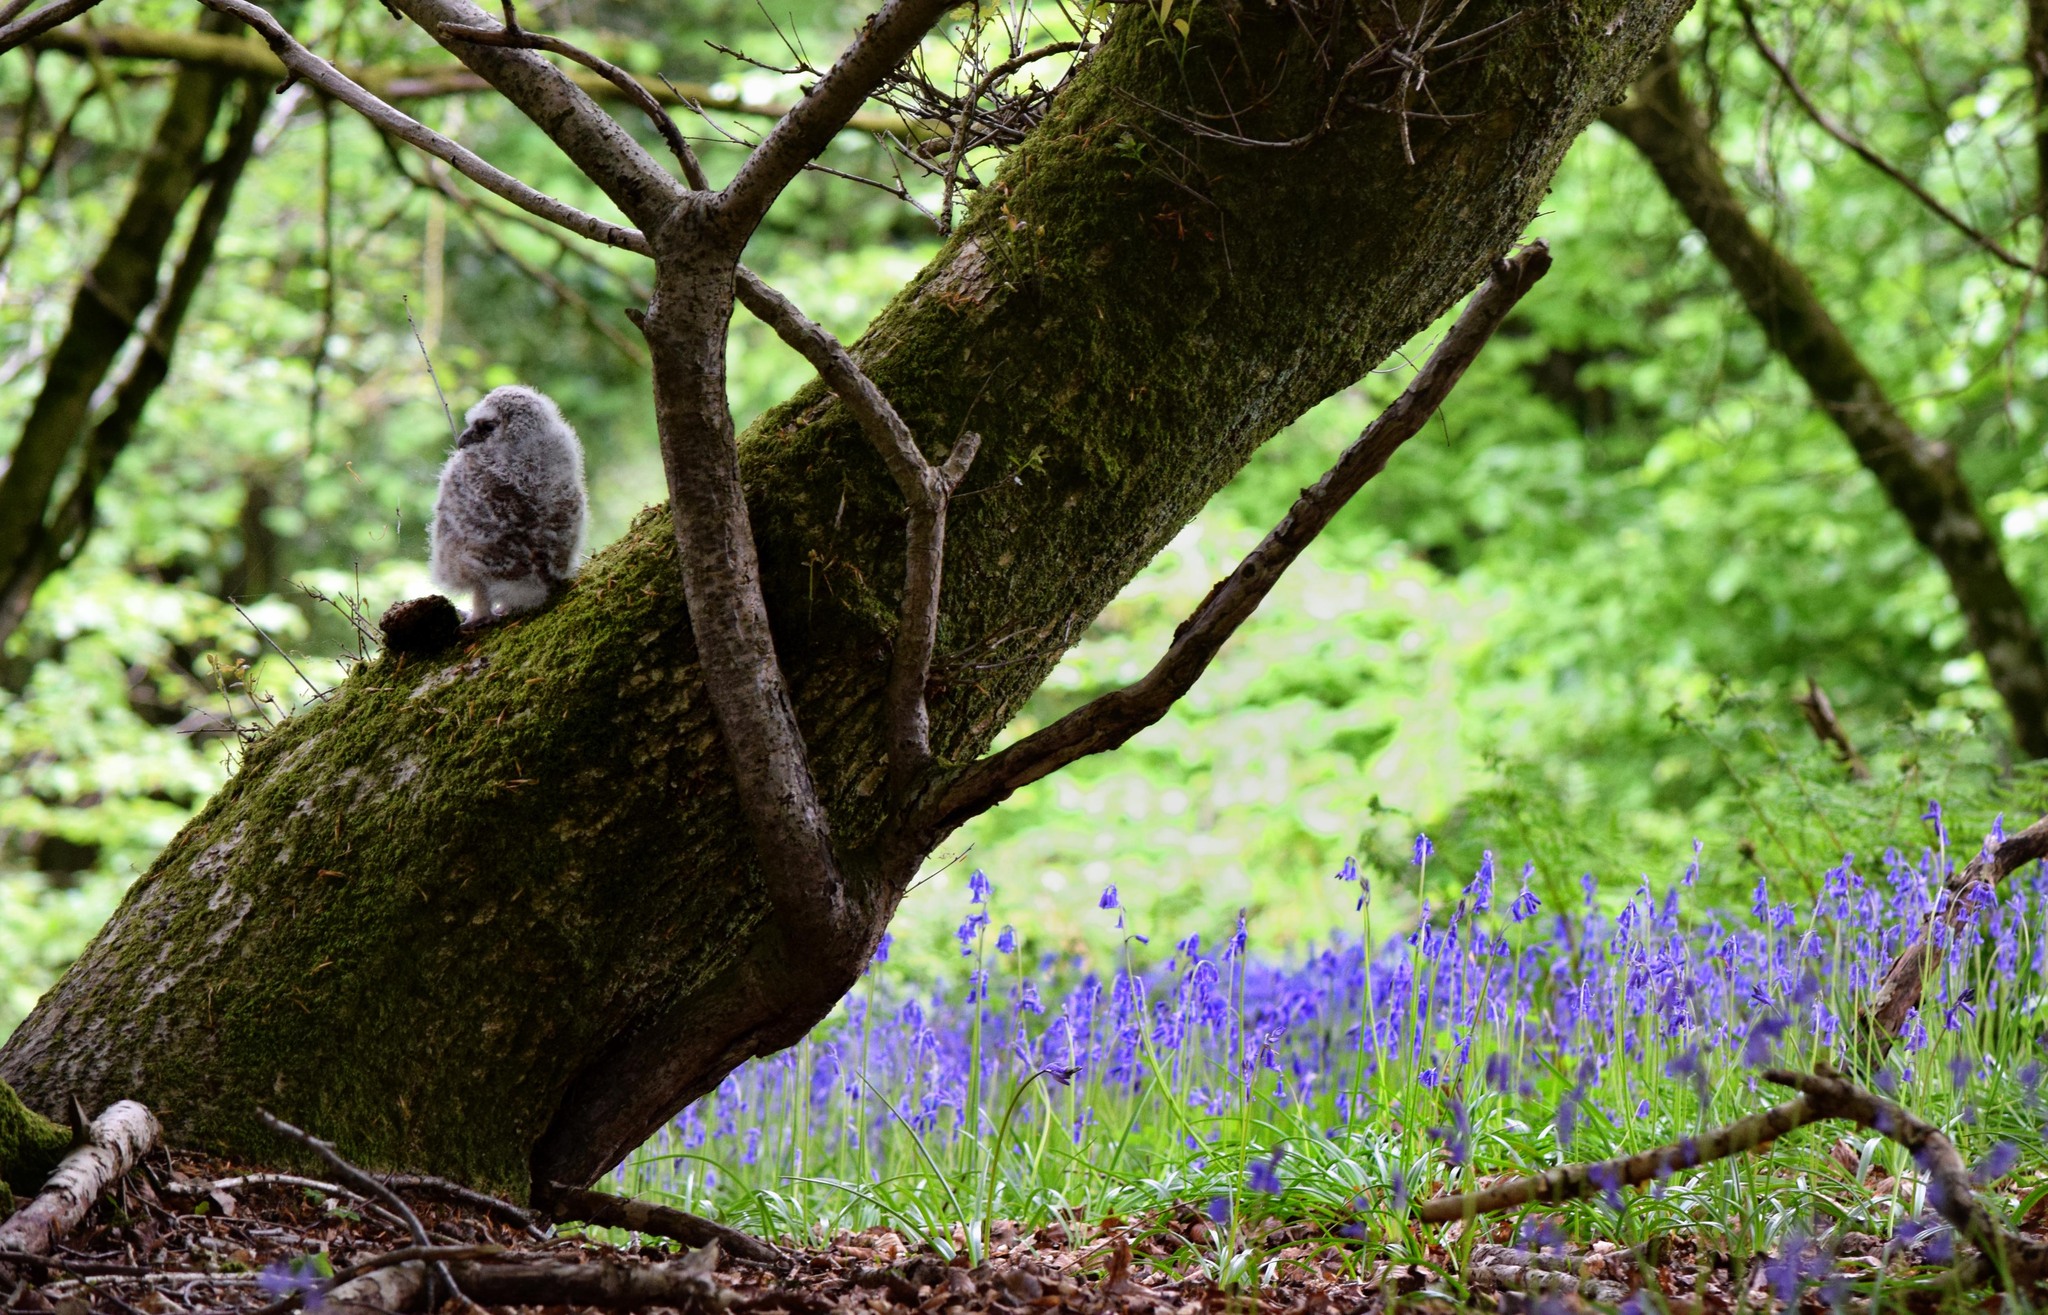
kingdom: Animalia
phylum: Chordata
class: Aves
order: Strigiformes
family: Strigidae
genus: Strix
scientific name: Strix aluco
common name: Tawny owl
